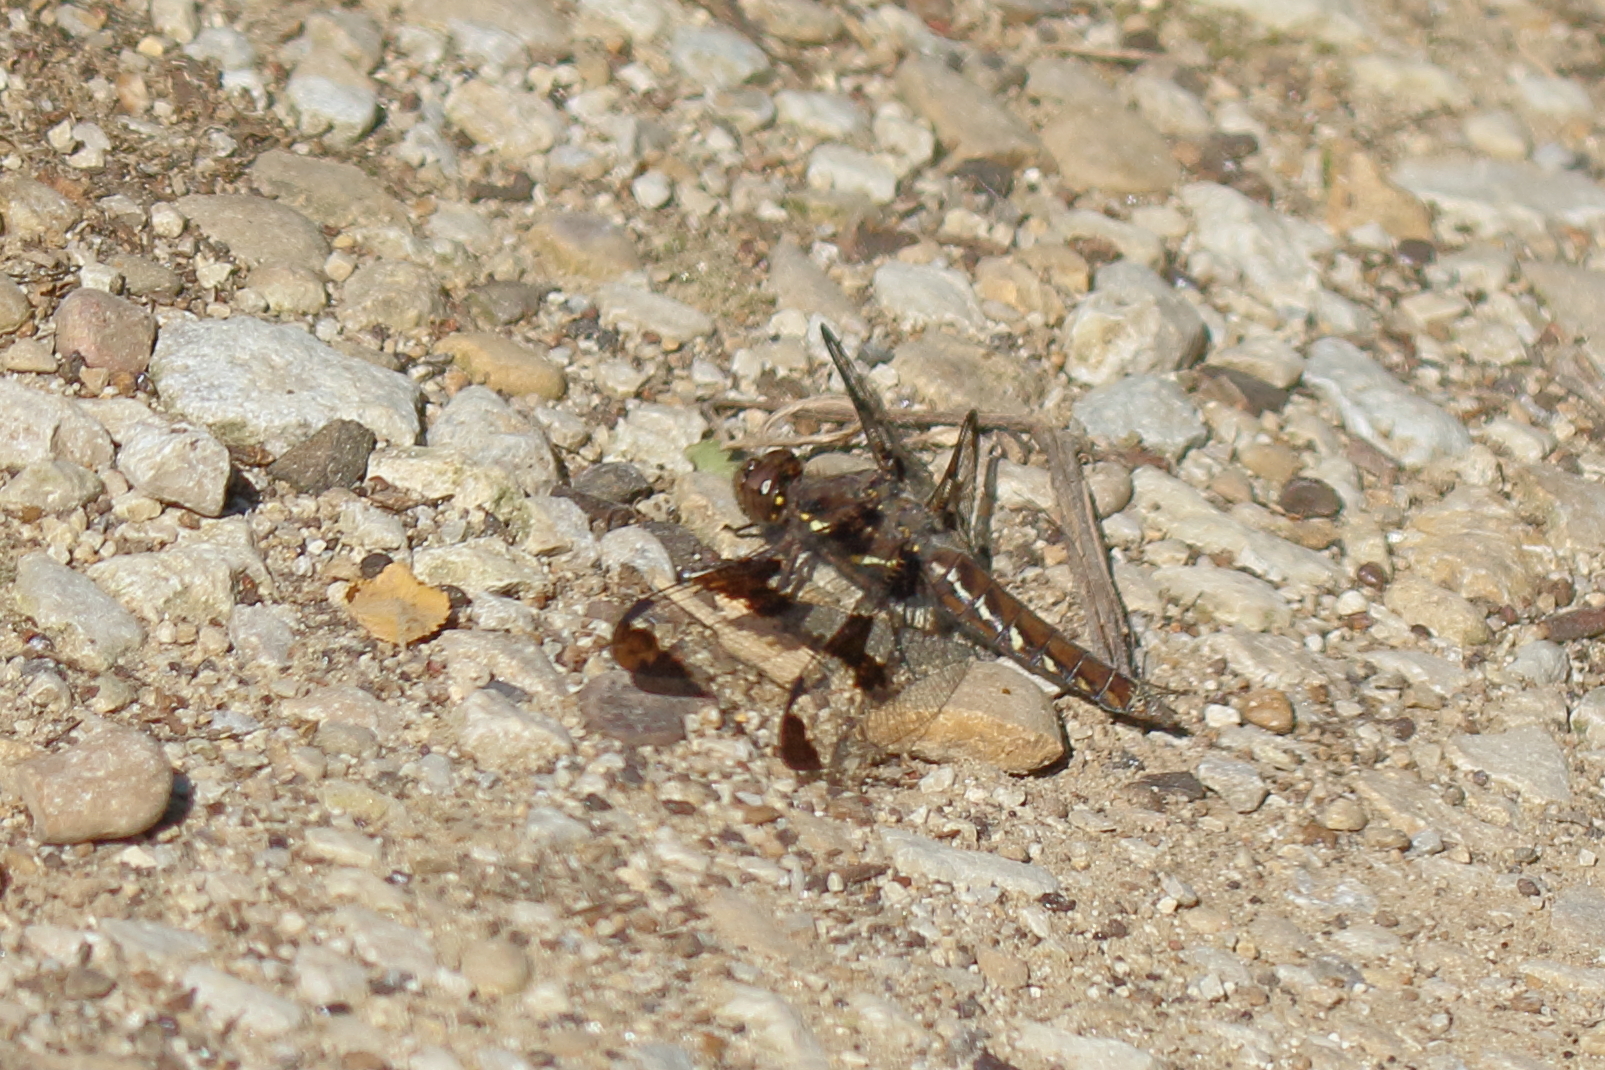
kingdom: Animalia
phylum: Arthropoda
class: Insecta
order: Odonata
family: Libellulidae
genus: Plathemis
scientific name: Plathemis lydia
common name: Common whitetail
